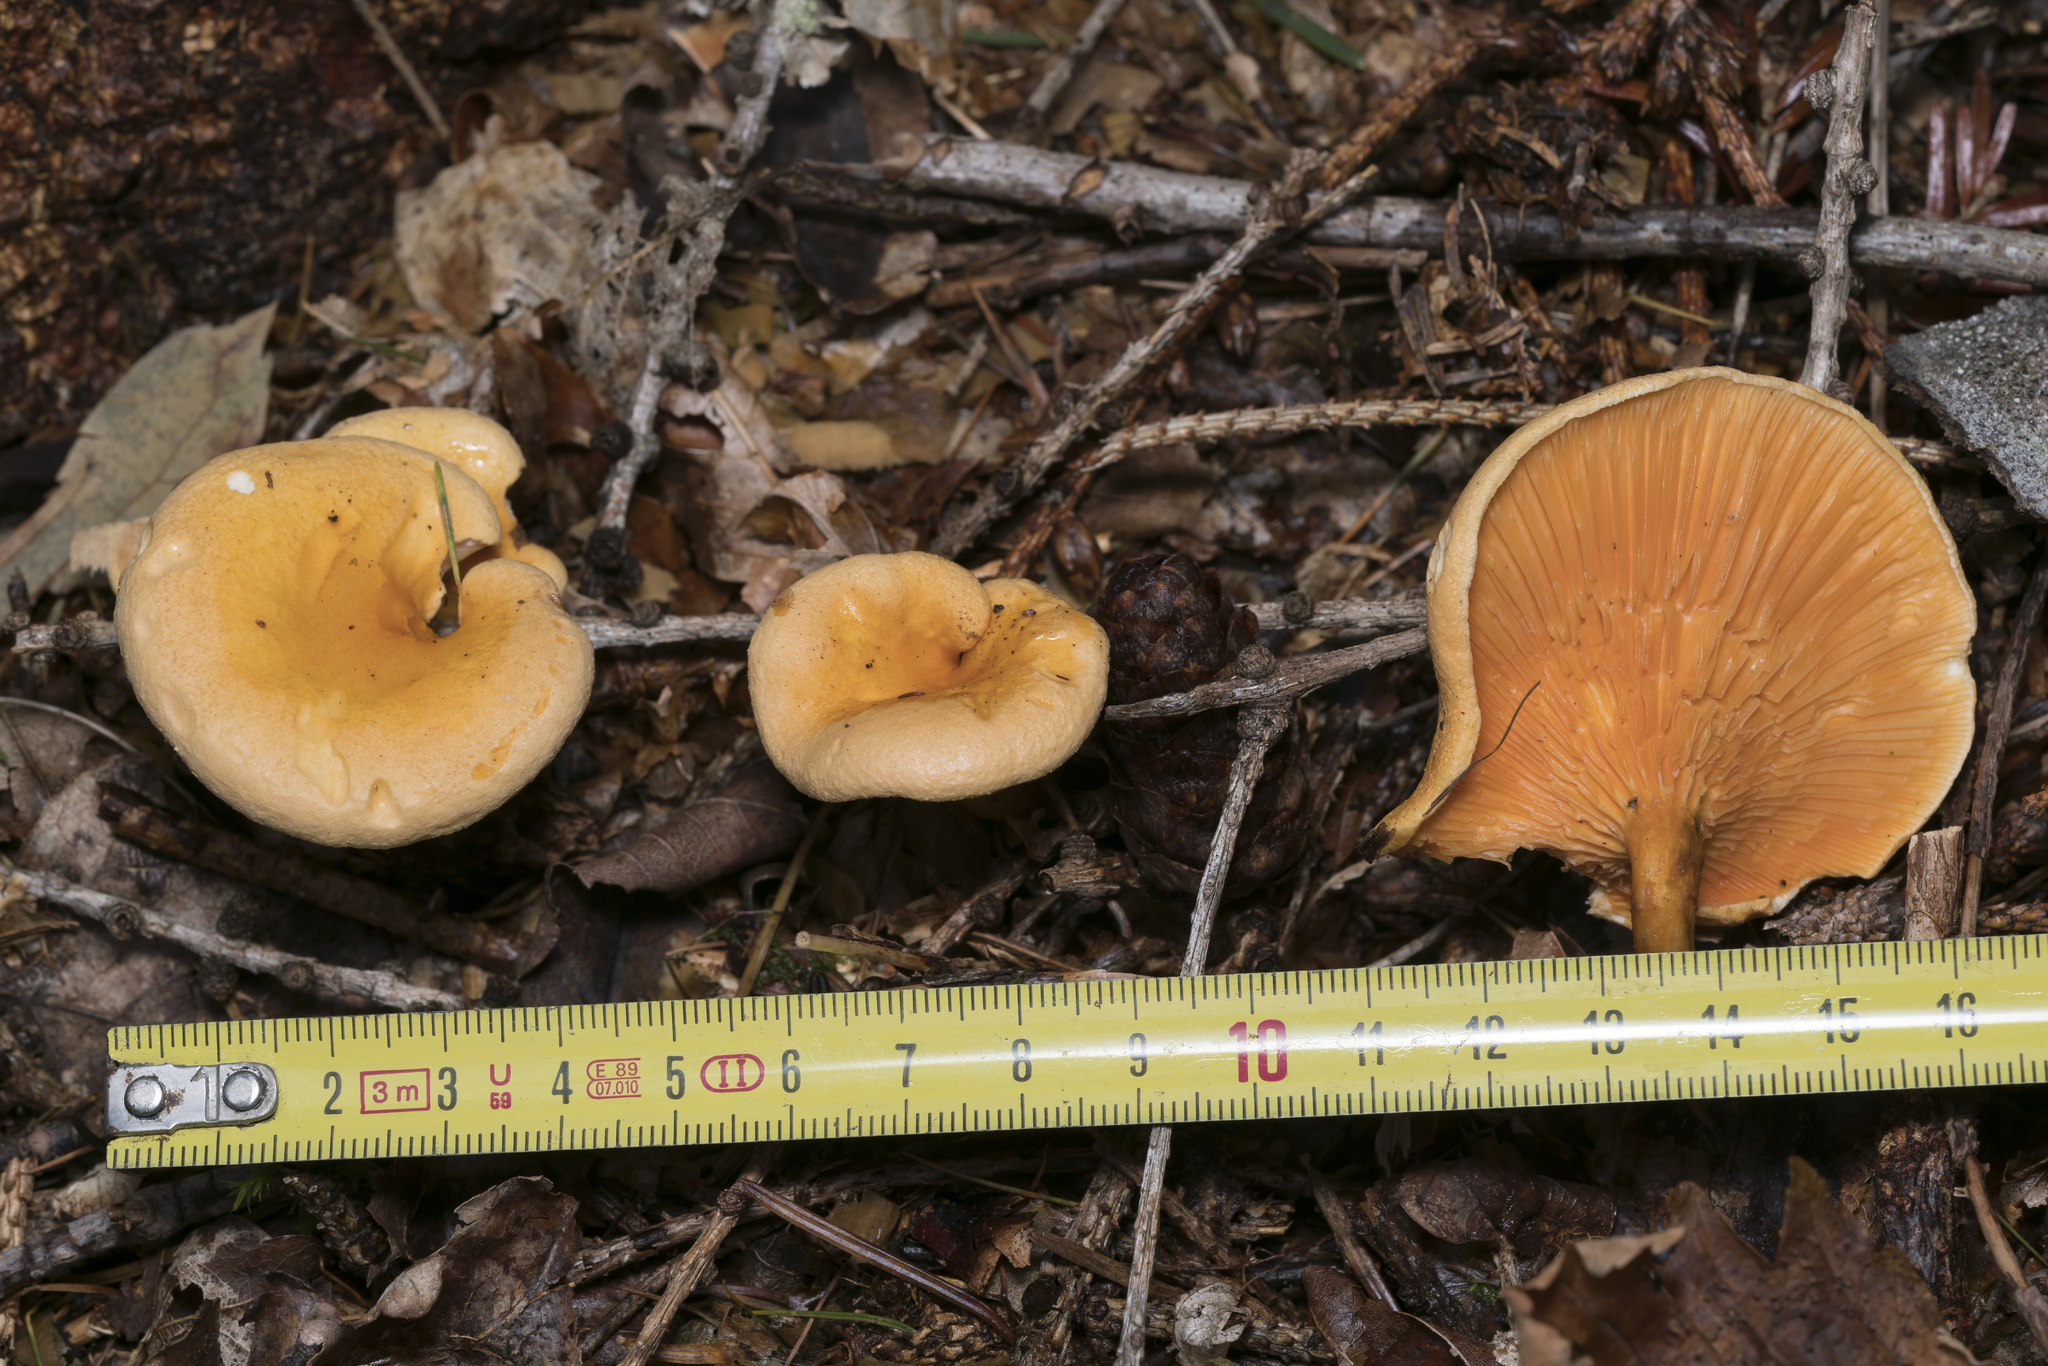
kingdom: Fungi
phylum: Basidiomycota
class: Agaricomycetes
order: Boletales
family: Hygrophoropsidaceae
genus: Hygrophoropsis
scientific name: Hygrophoropsis aurantiaca
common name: False chanterelle
